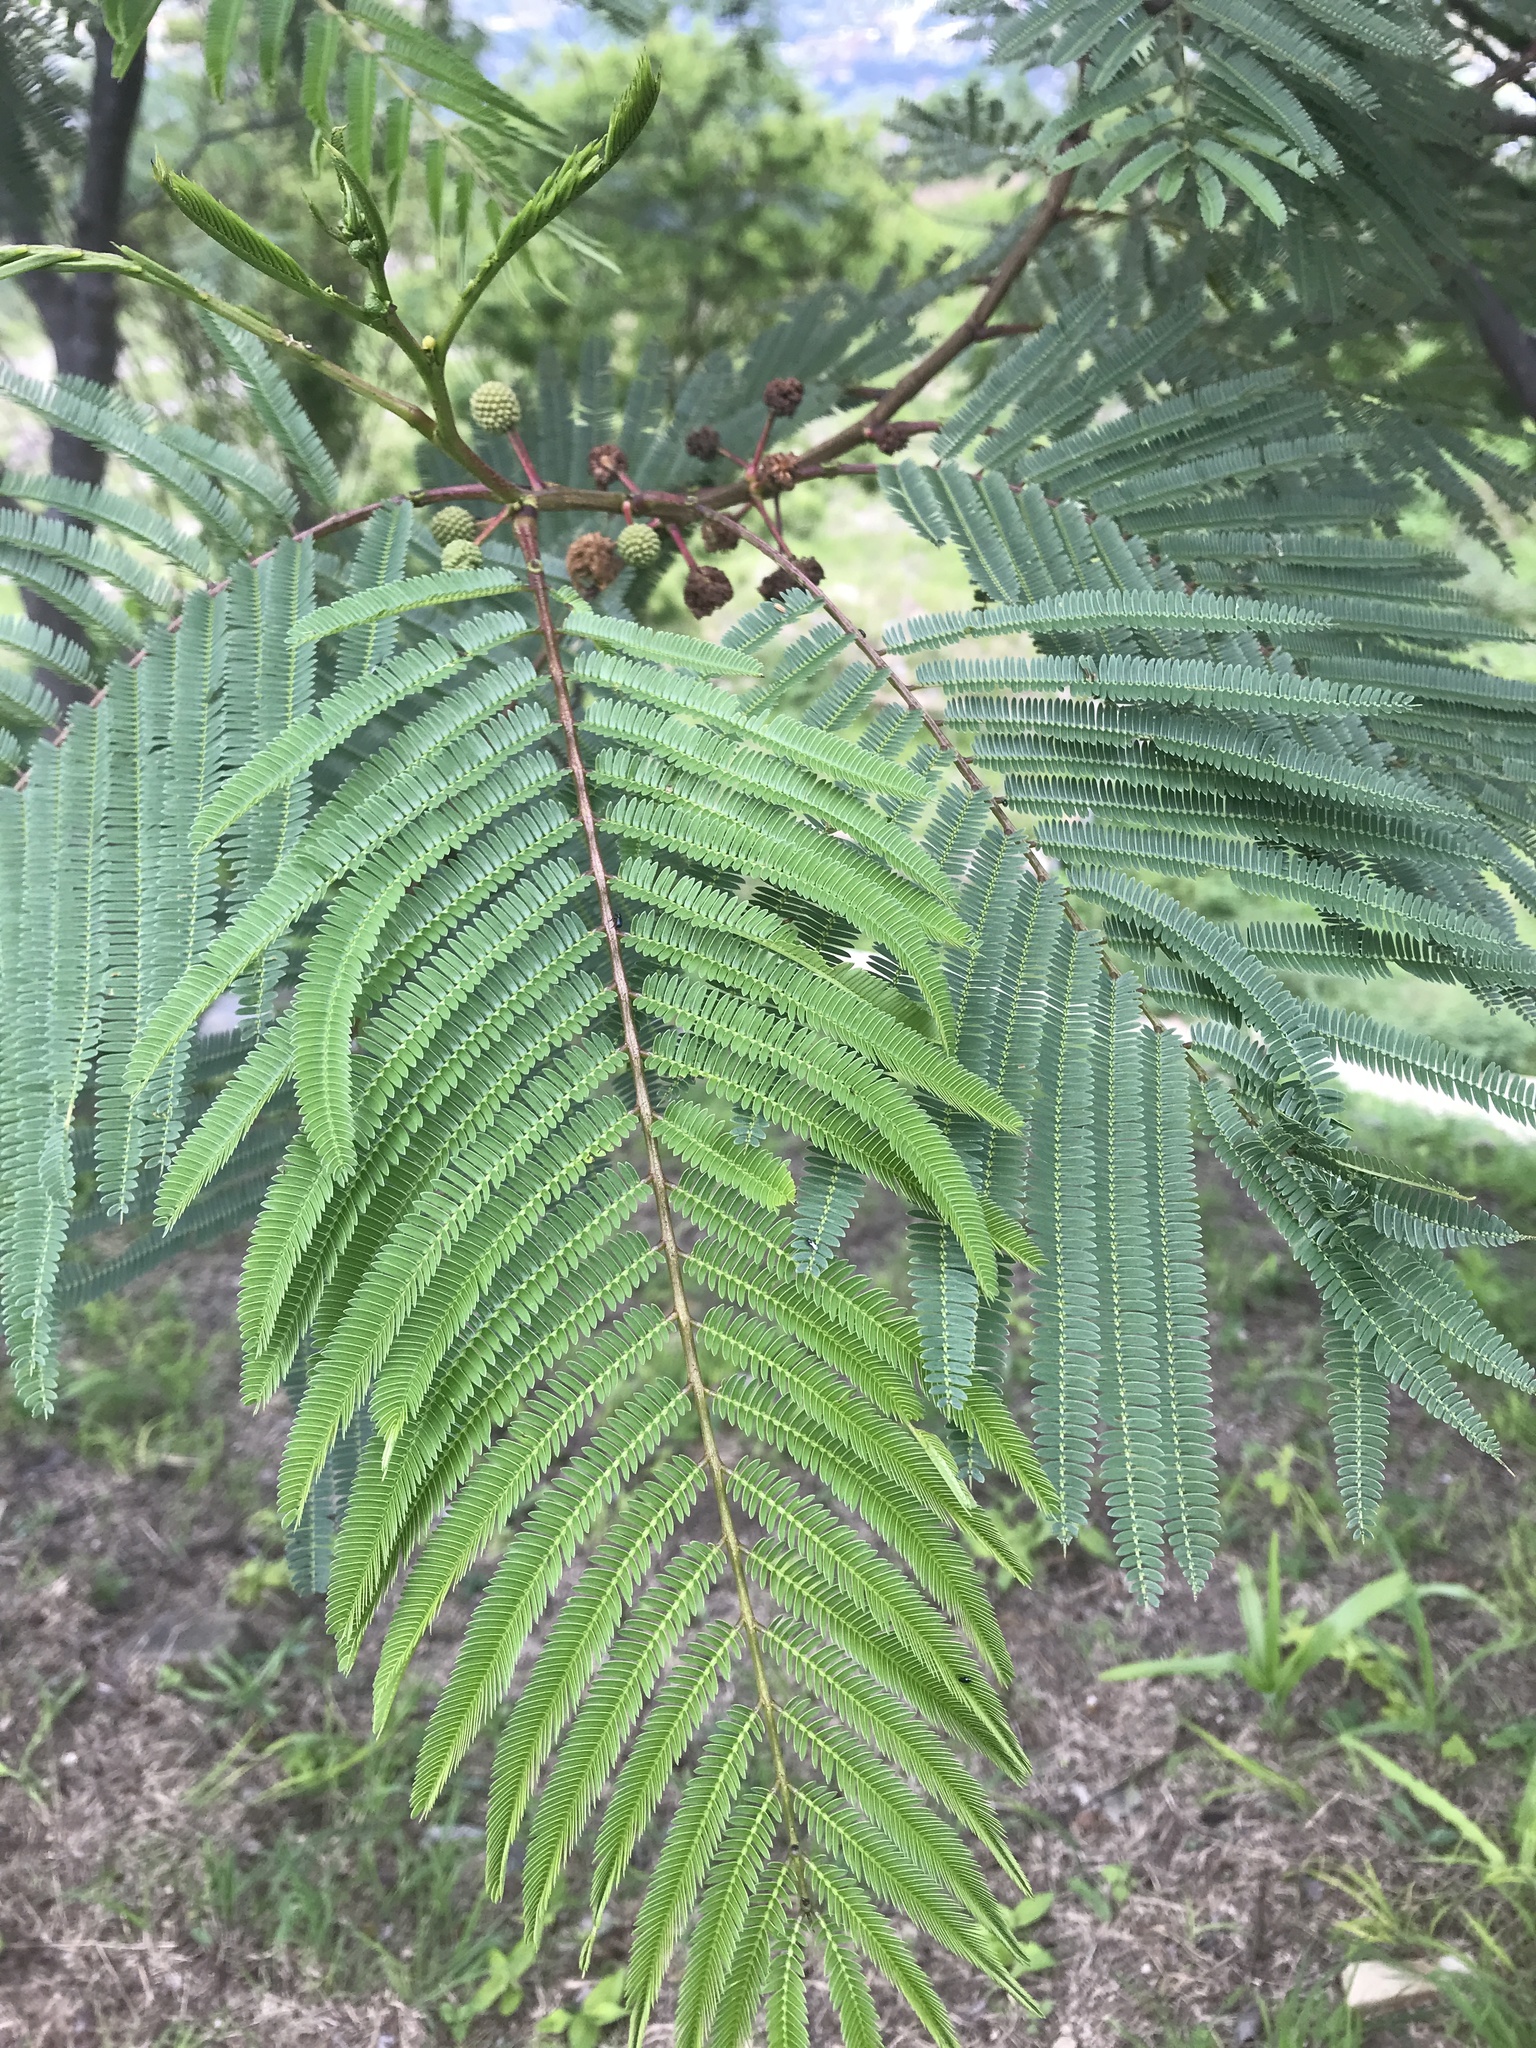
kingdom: Plantae
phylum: Tracheophyta
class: Magnoliopsida
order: Fabales
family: Fabaceae
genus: Acaciella
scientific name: Acaciella angustissima
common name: Prairie acacia
